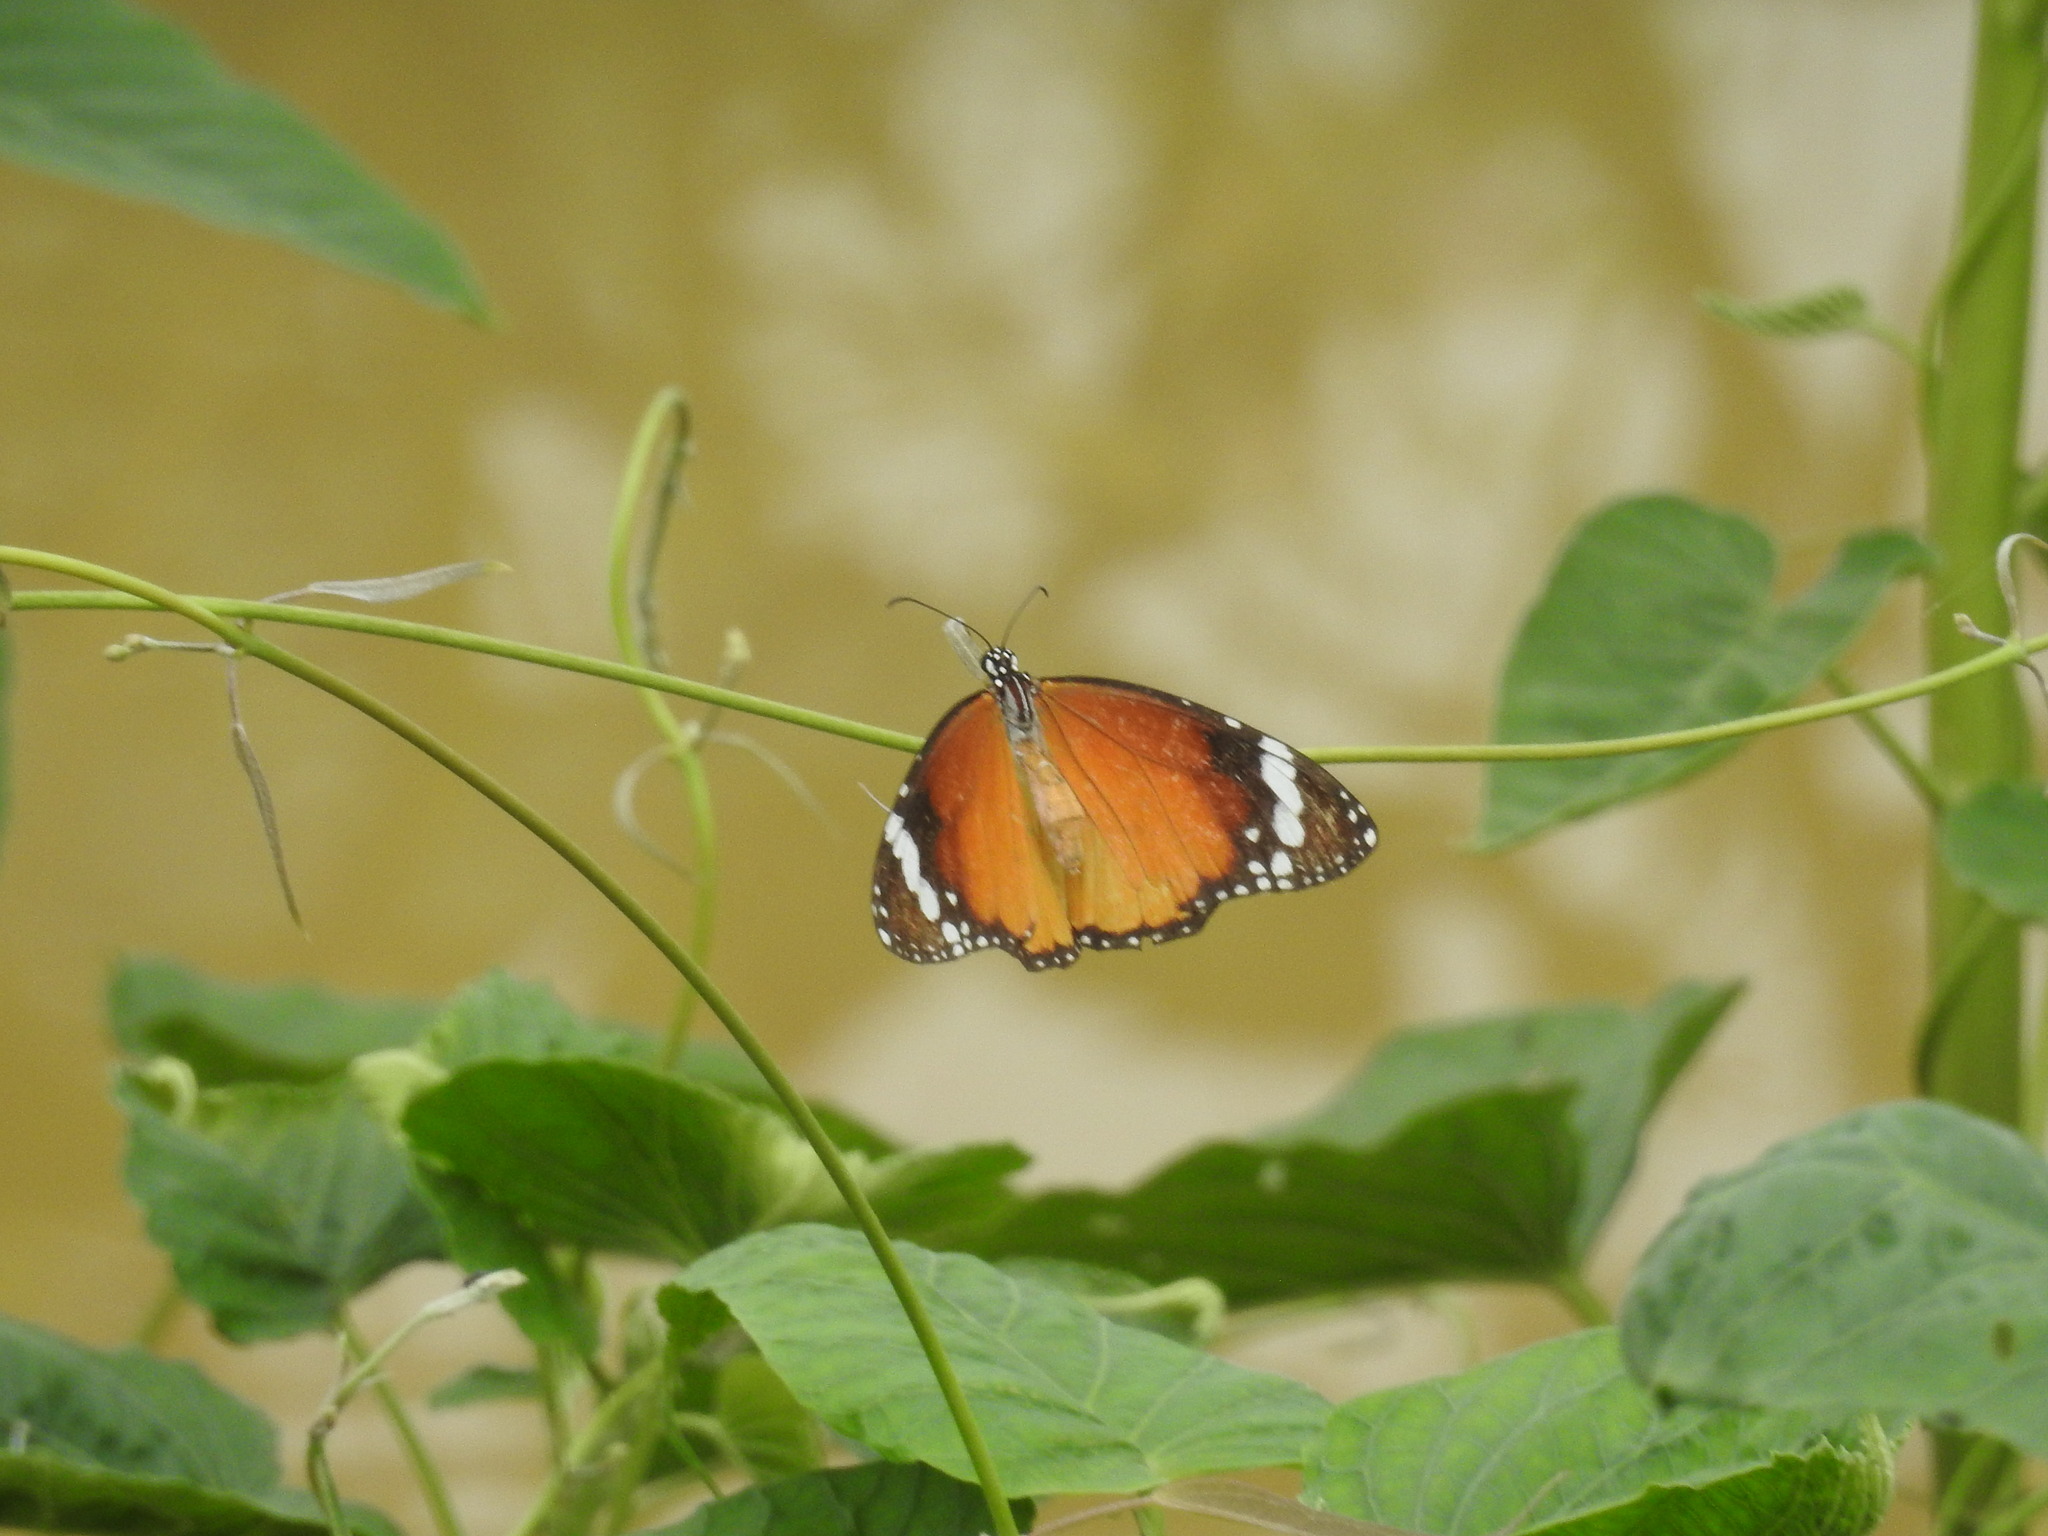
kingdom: Animalia
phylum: Arthropoda
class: Insecta
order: Lepidoptera
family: Nymphalidae
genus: Danaus
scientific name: Danaus chrysippus
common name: Plain tiger
